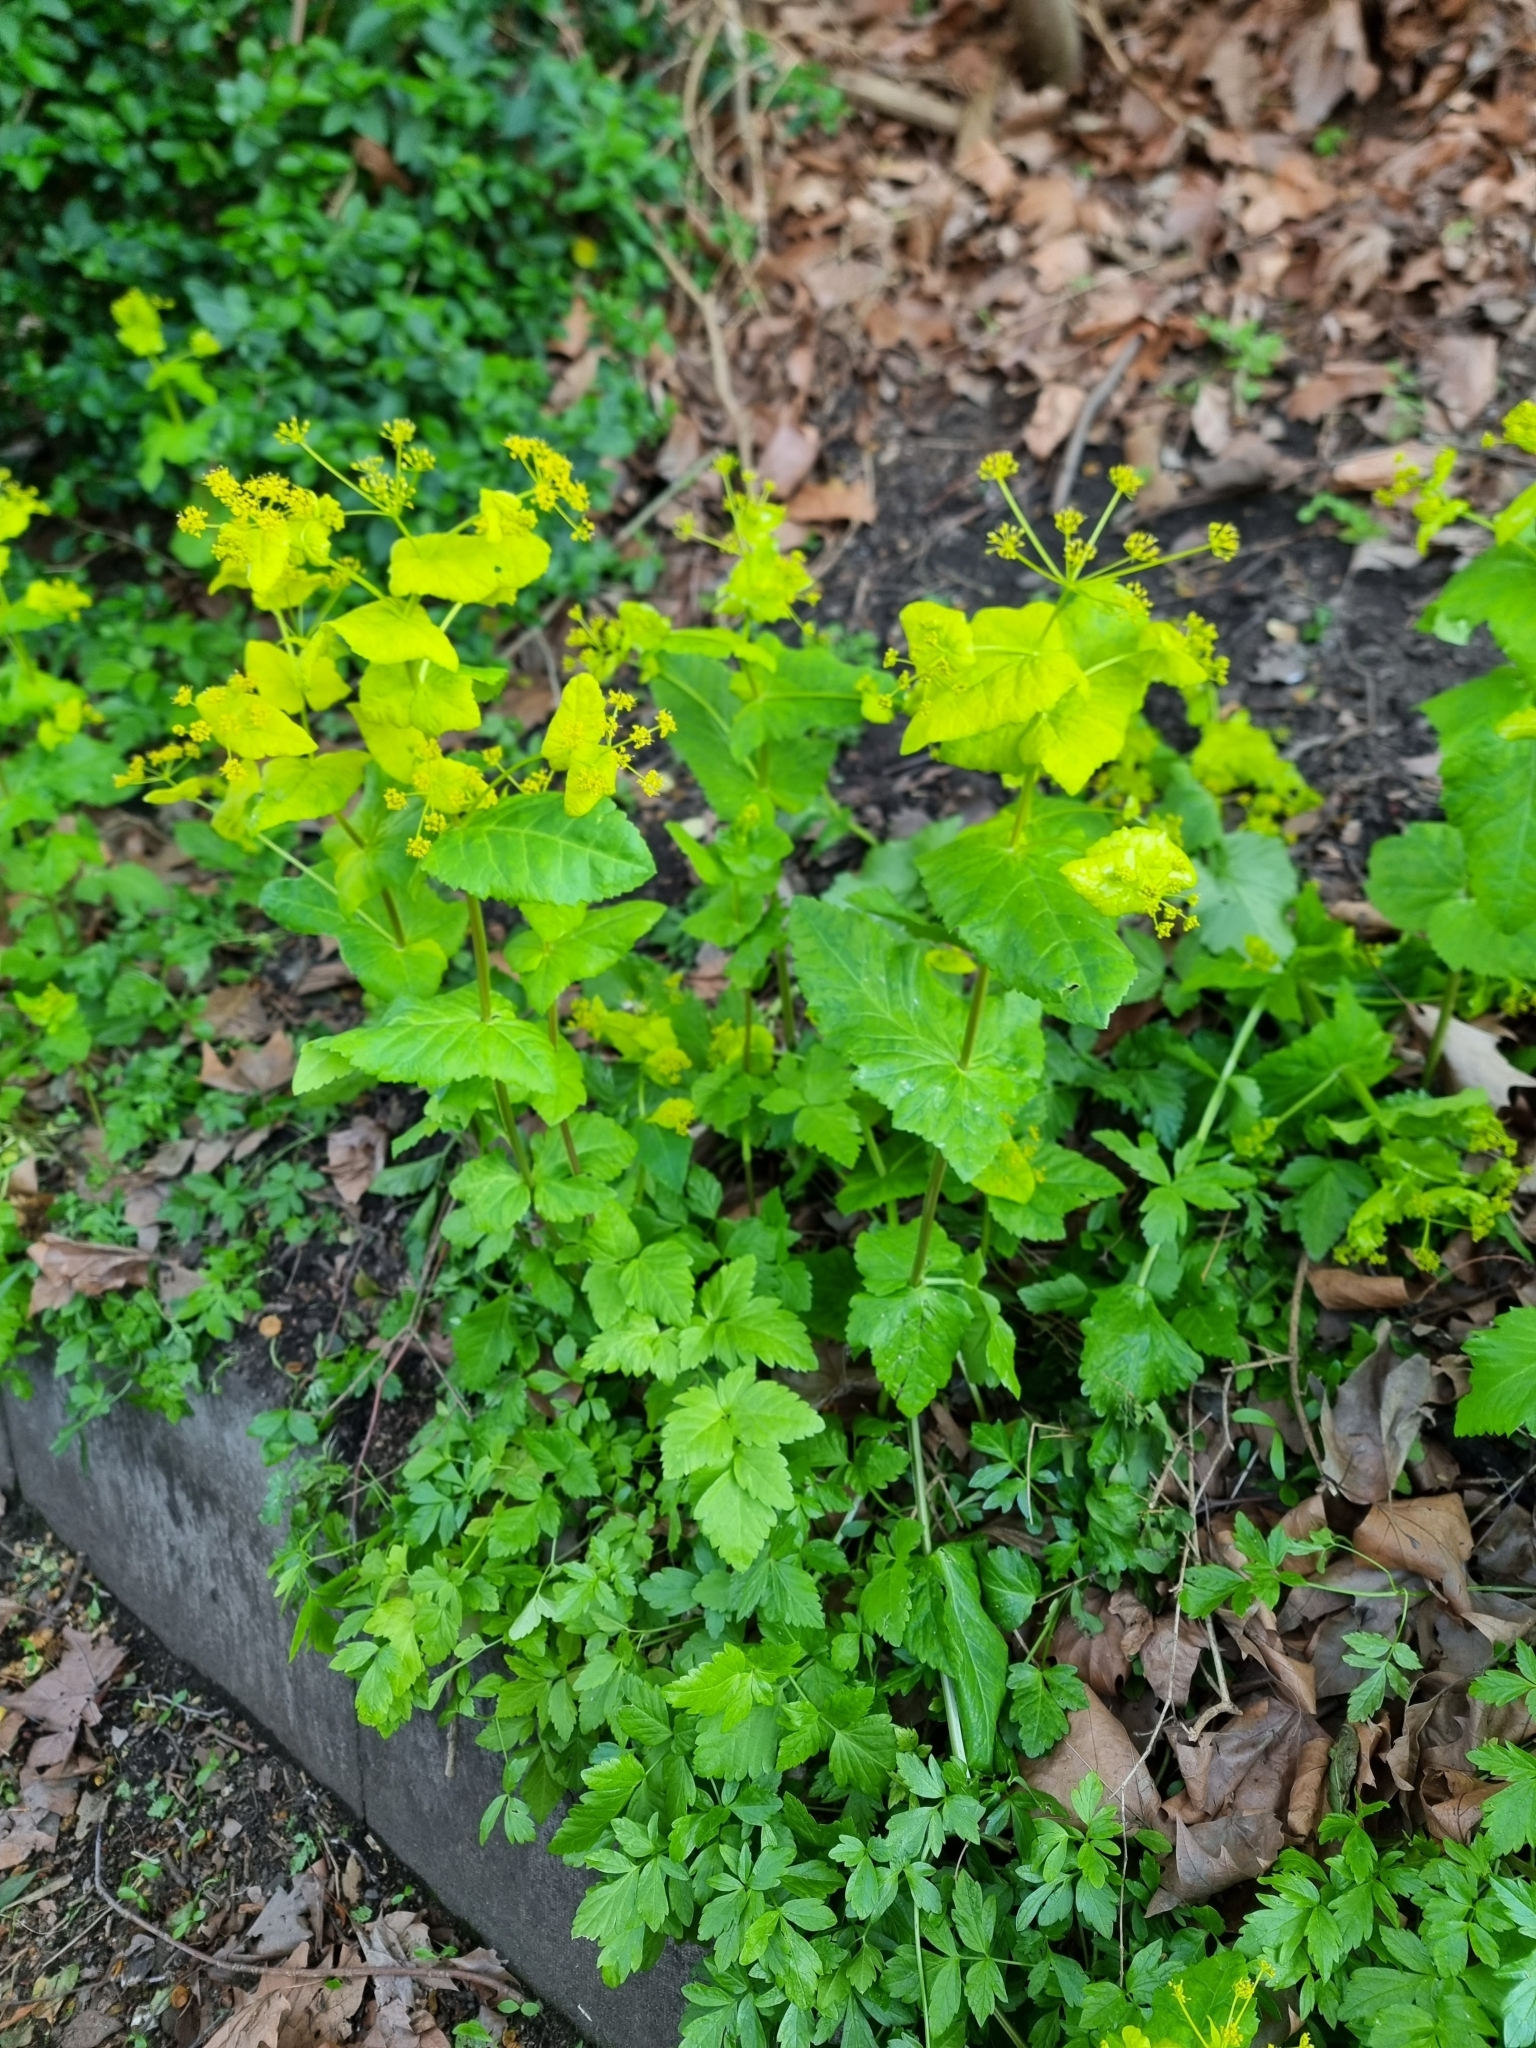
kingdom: Plantae
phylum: Tracheophyta
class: Magnoliopsida
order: Apiales
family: Apiaceae
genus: Smyrnium
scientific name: Smyrnium perfoliatum
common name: Perfoliate alexanders
